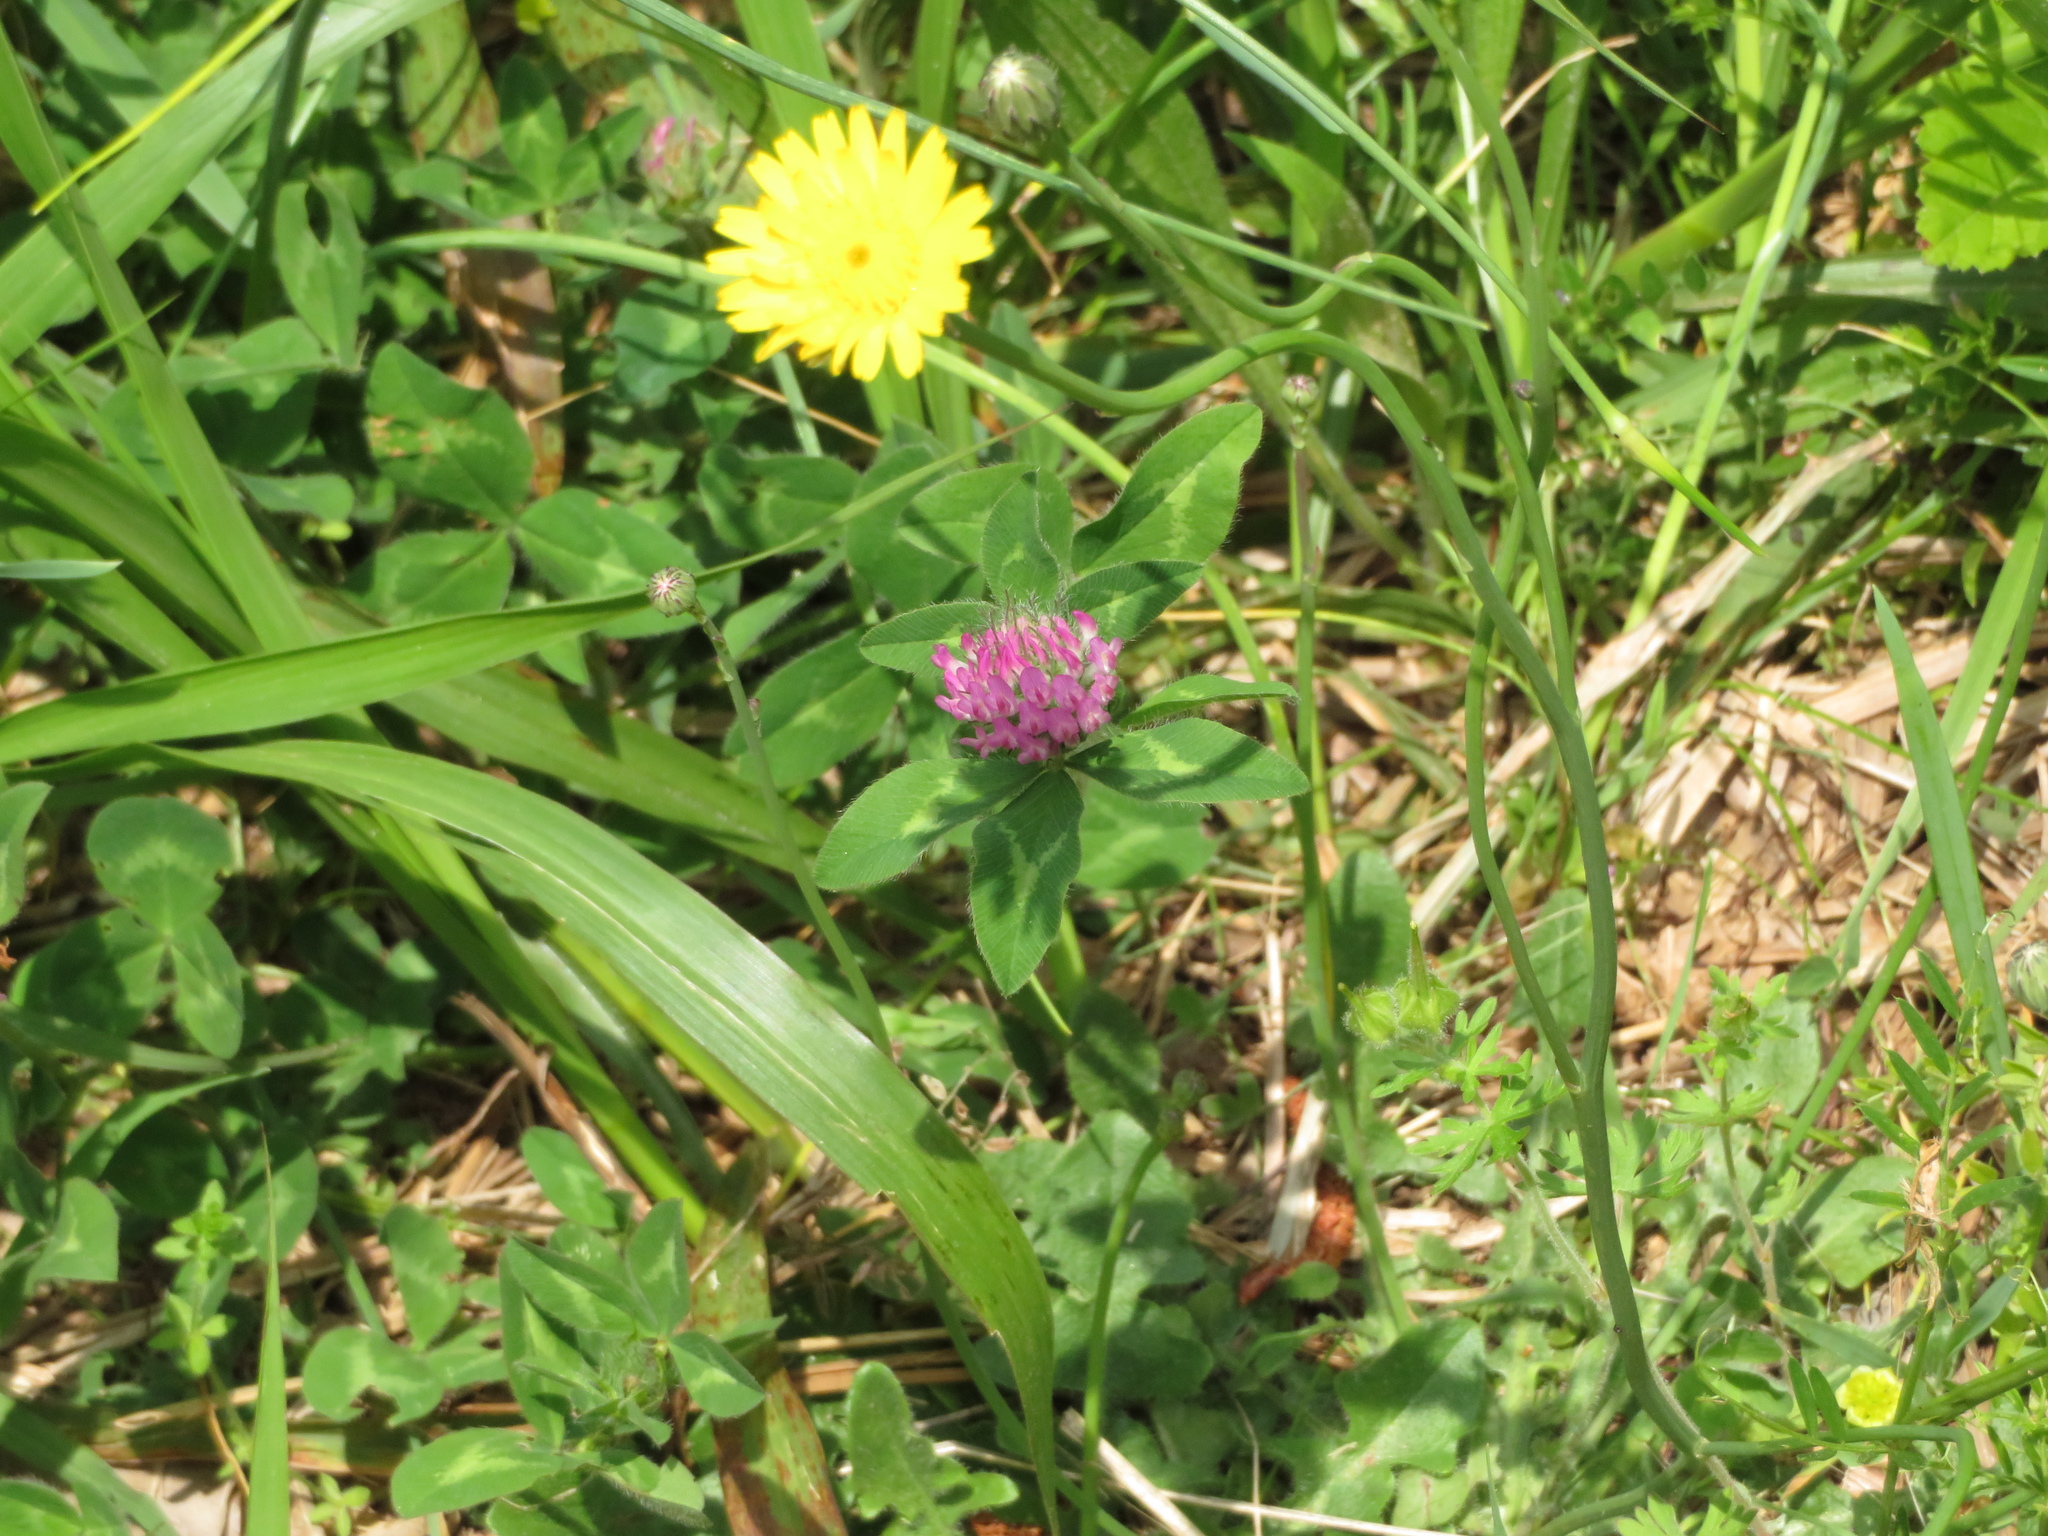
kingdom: Plantae
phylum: Tracheophyta
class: Magnoliopsida
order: Fabales
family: Fabaceae
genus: Trifolium
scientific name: Trifolium pratense
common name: Red clover
